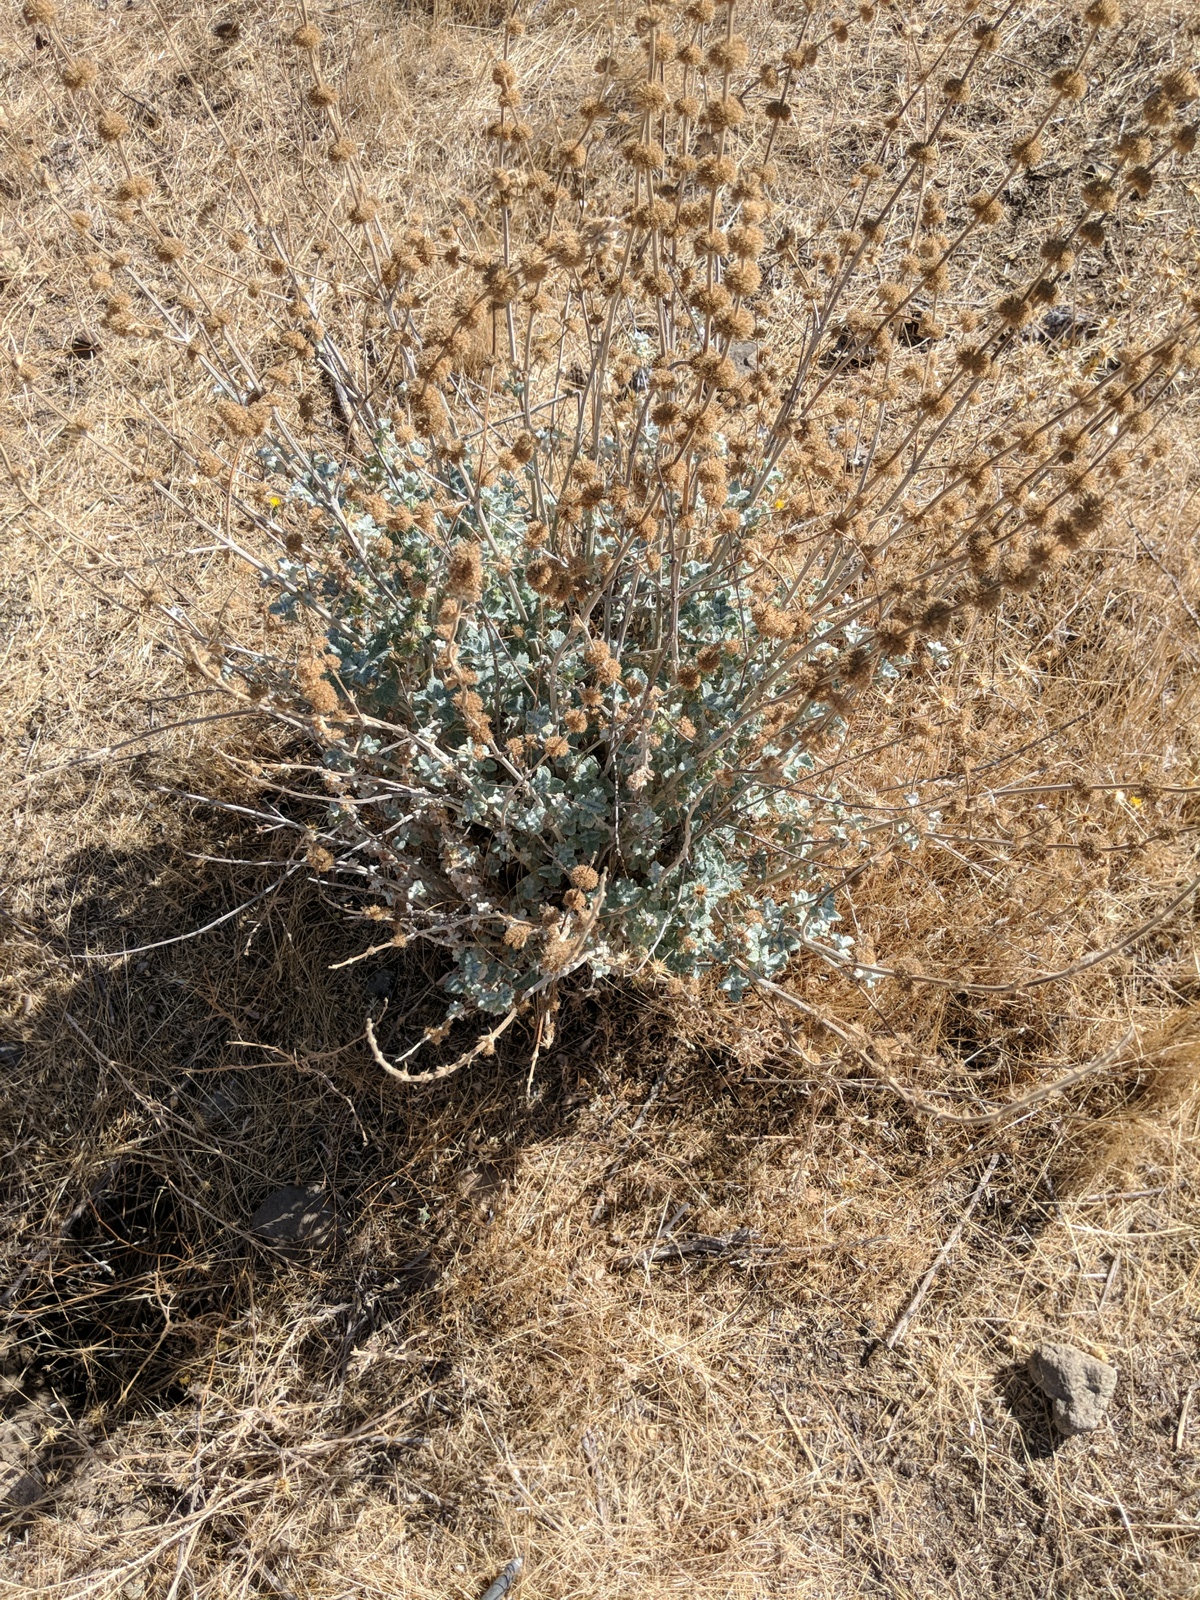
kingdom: Plantae
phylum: Tracheophyta
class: Magnoliopsida
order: Lamiales
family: Lamiaceae
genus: Marrubium
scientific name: Marrubium vulgare
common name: Horehound
